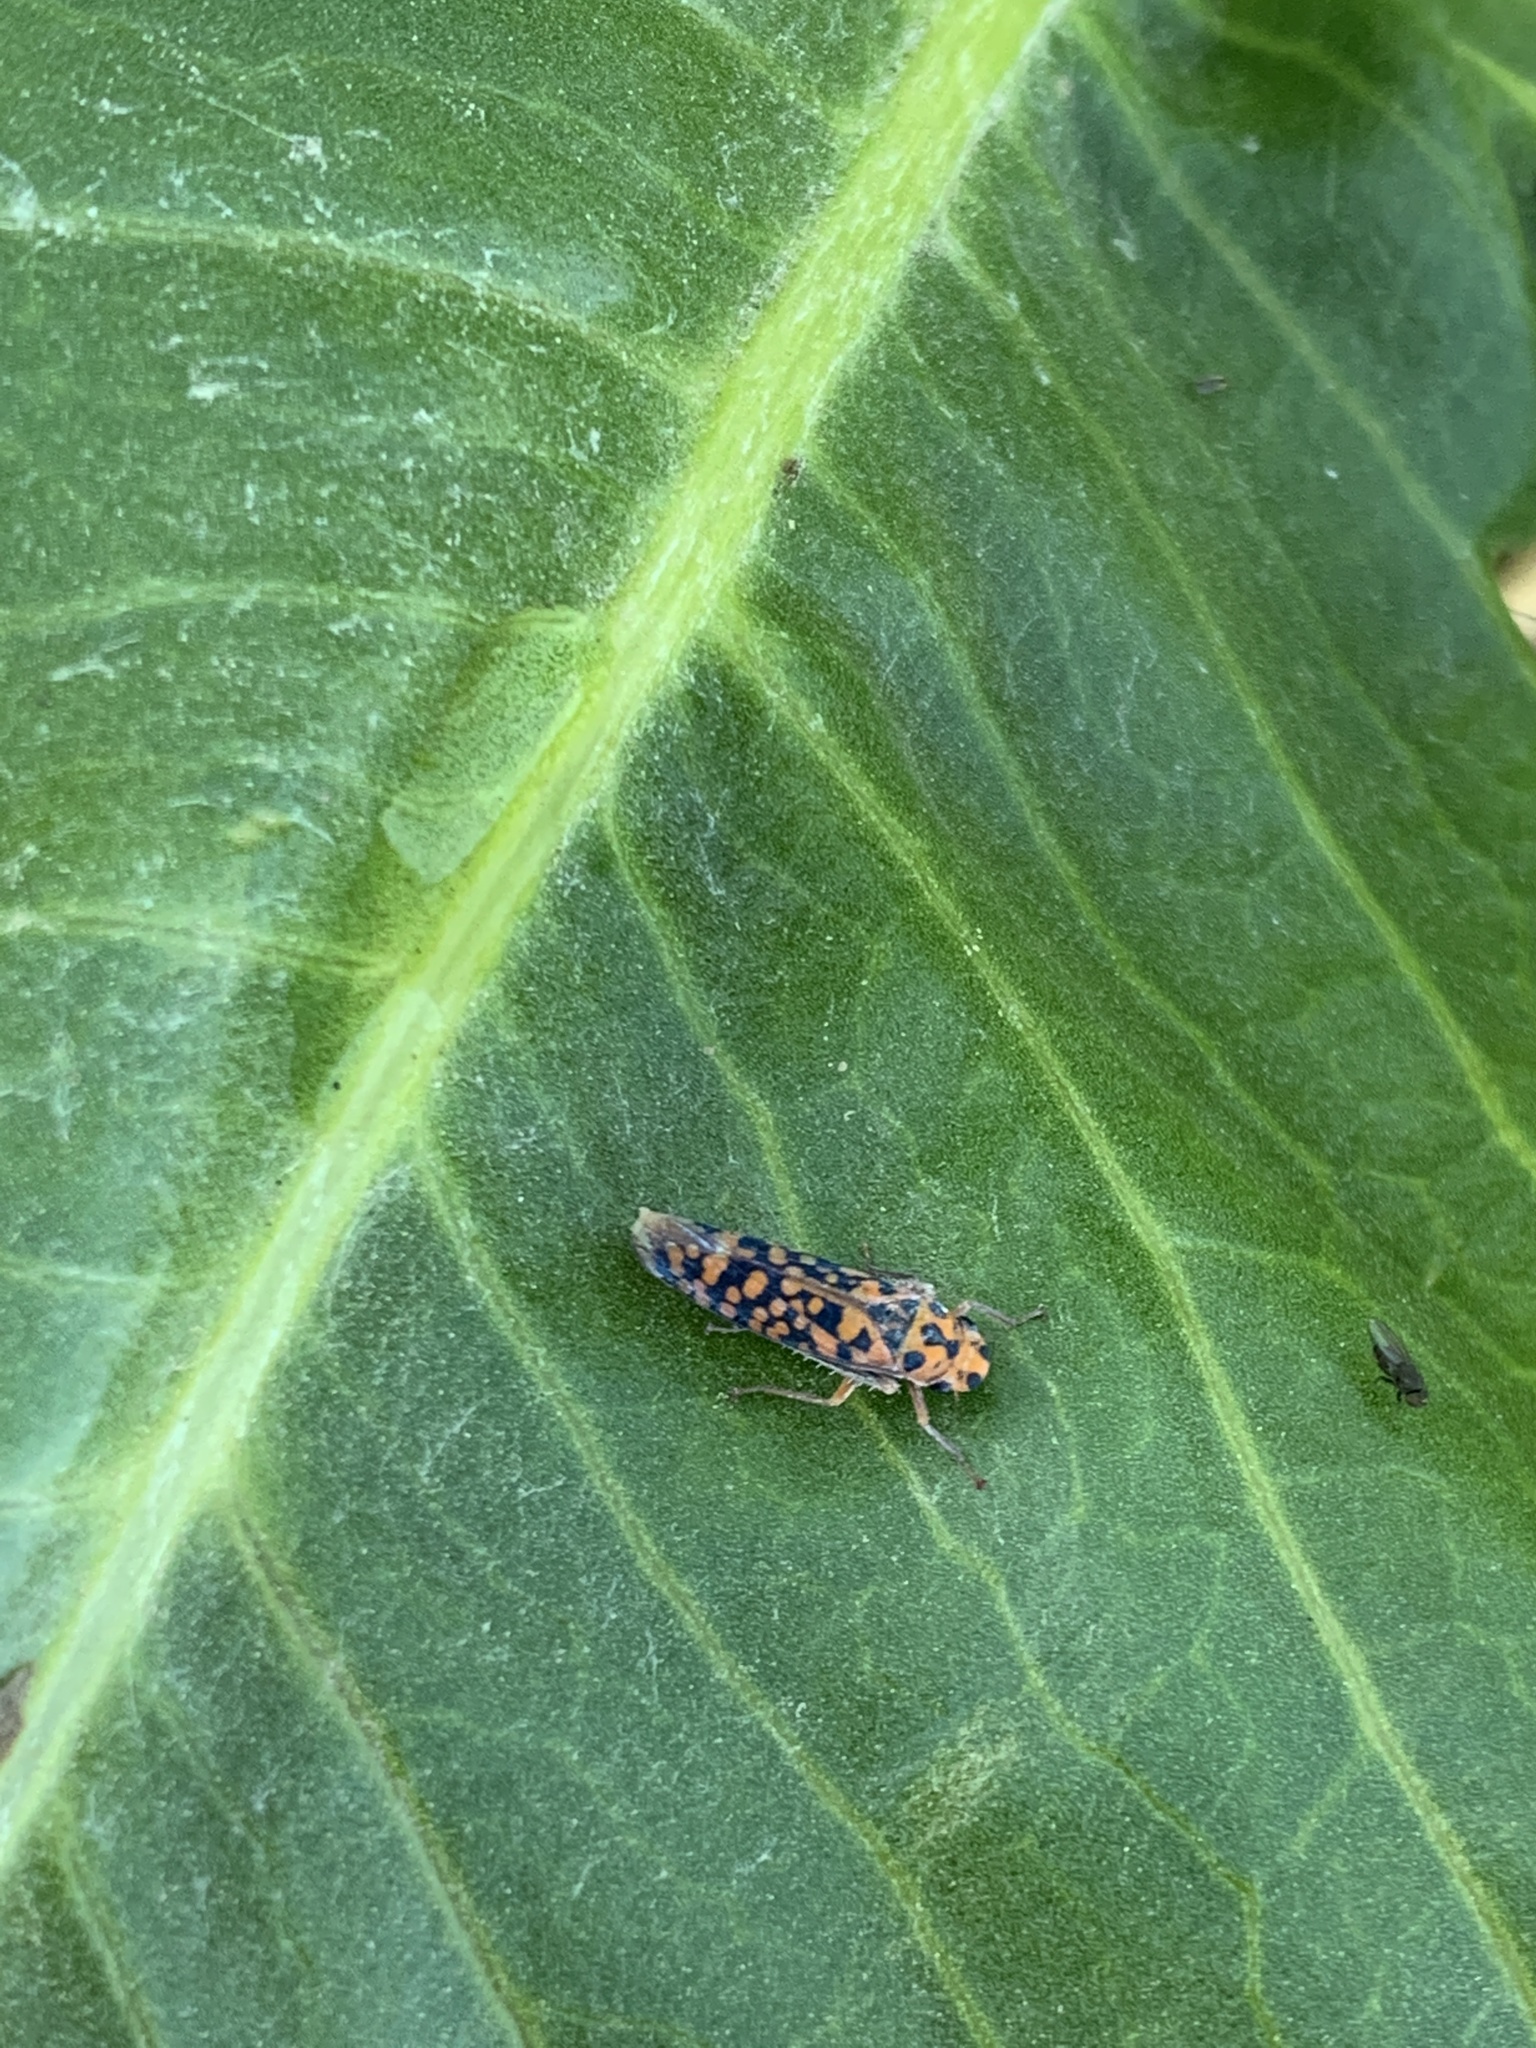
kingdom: Animalia
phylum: Arthropoda
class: Insecta
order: Hemiptera
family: Cicadellidae
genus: Pawiloma
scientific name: Pawiloma victima
